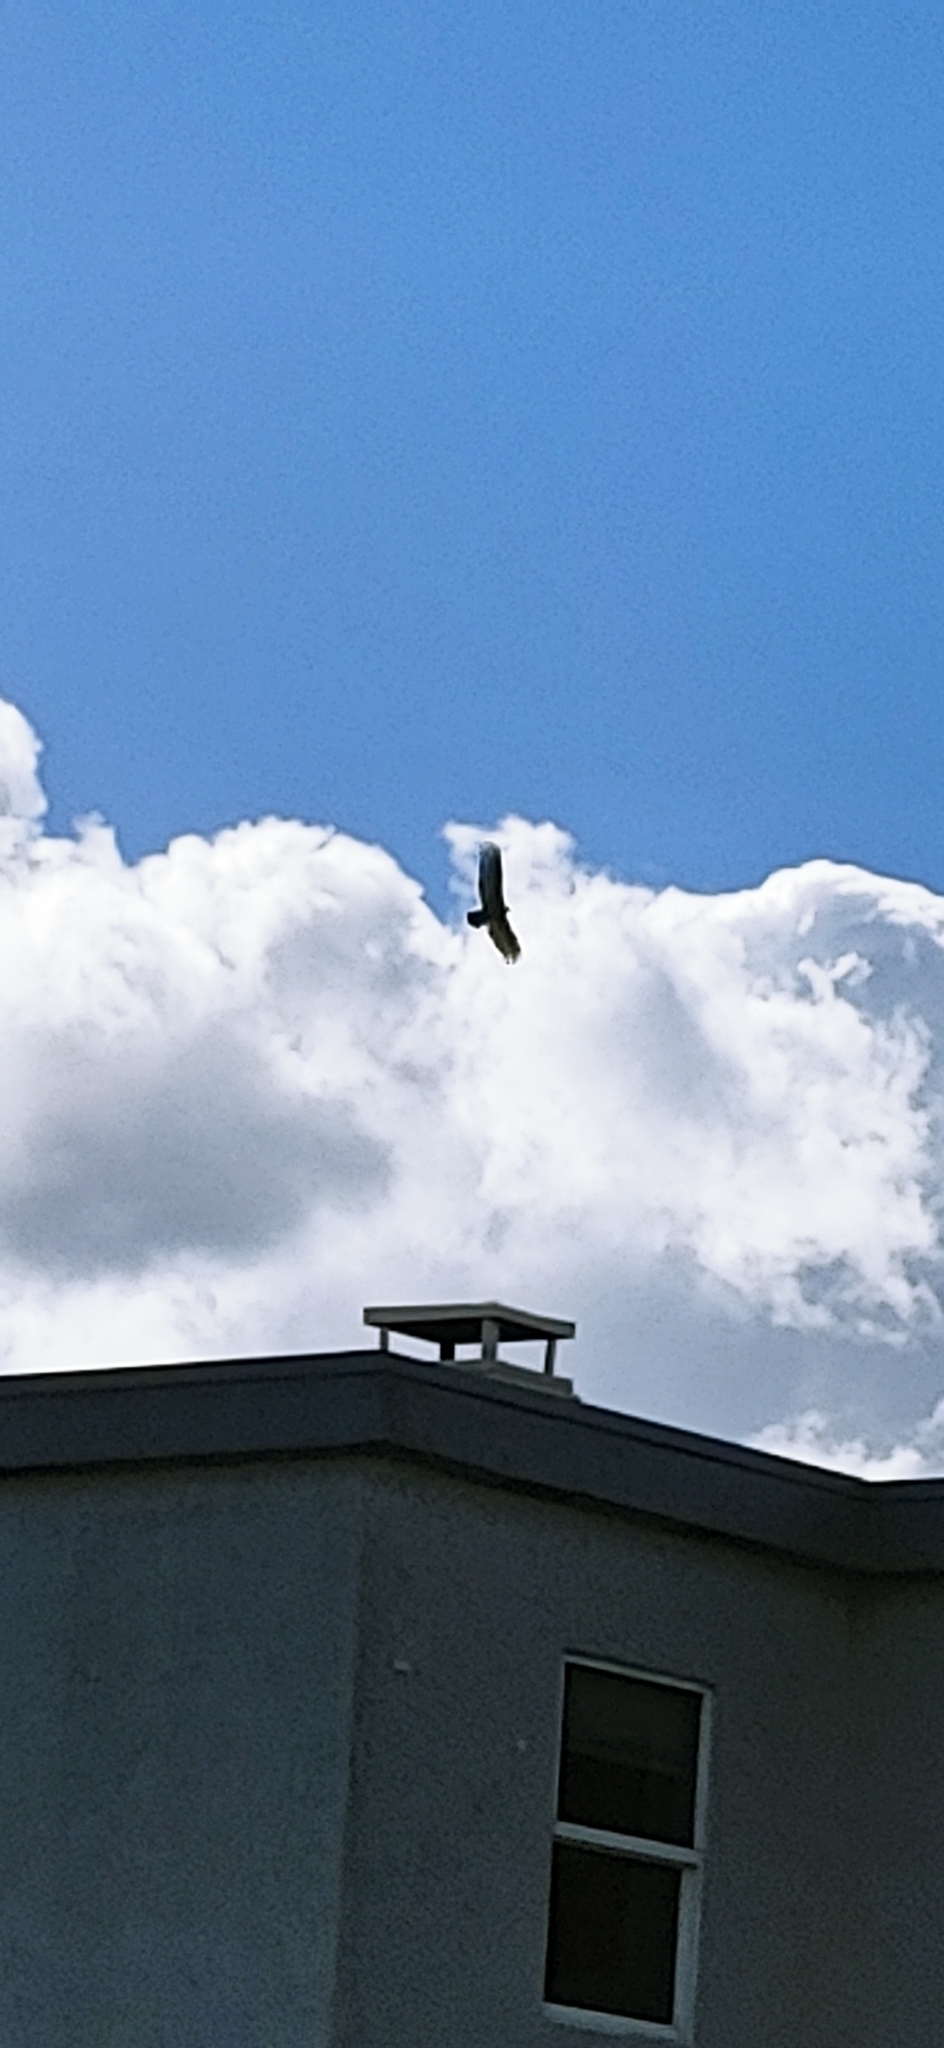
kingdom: Animalia
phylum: Chordata
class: Aves
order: Accipitriformes
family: Cathartidae
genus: Cathartes
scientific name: Cathartes aura
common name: Turkey vulture
